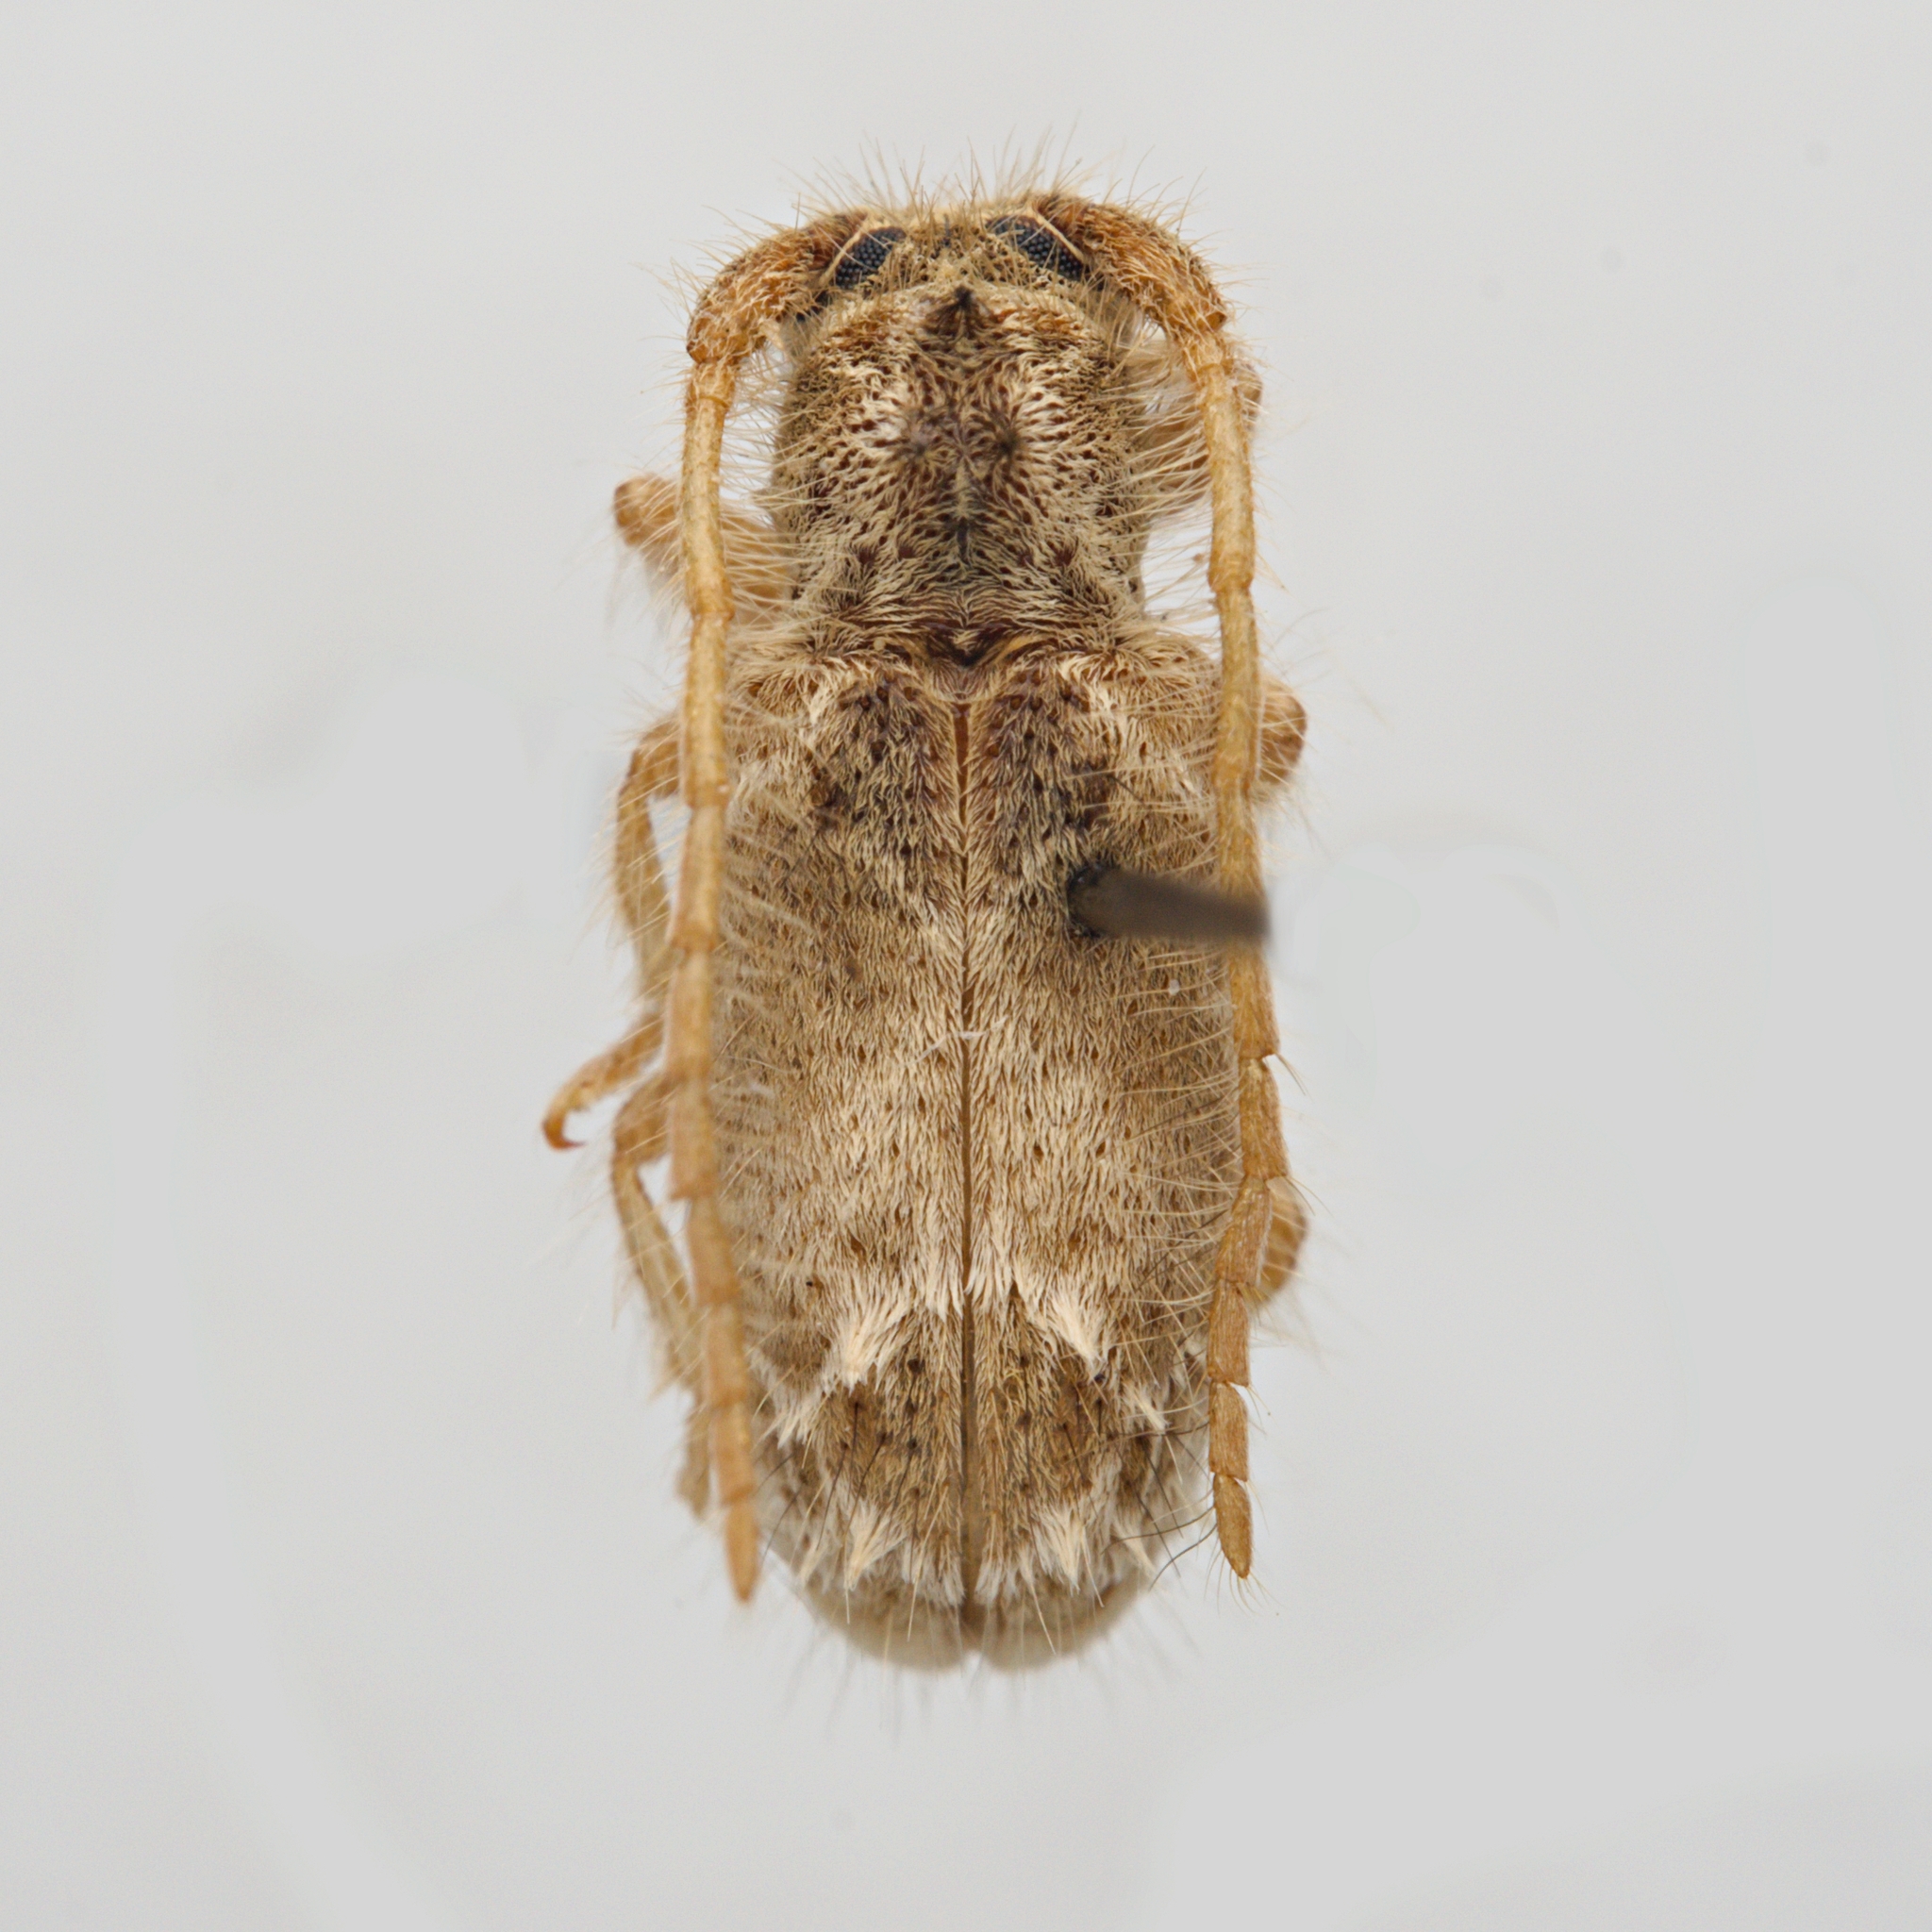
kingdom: Animalia
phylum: Arthropoda
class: Insecta
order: Coleoptera
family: Cerambycidae
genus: Desmiphora
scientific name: Desmiphora aegrota
